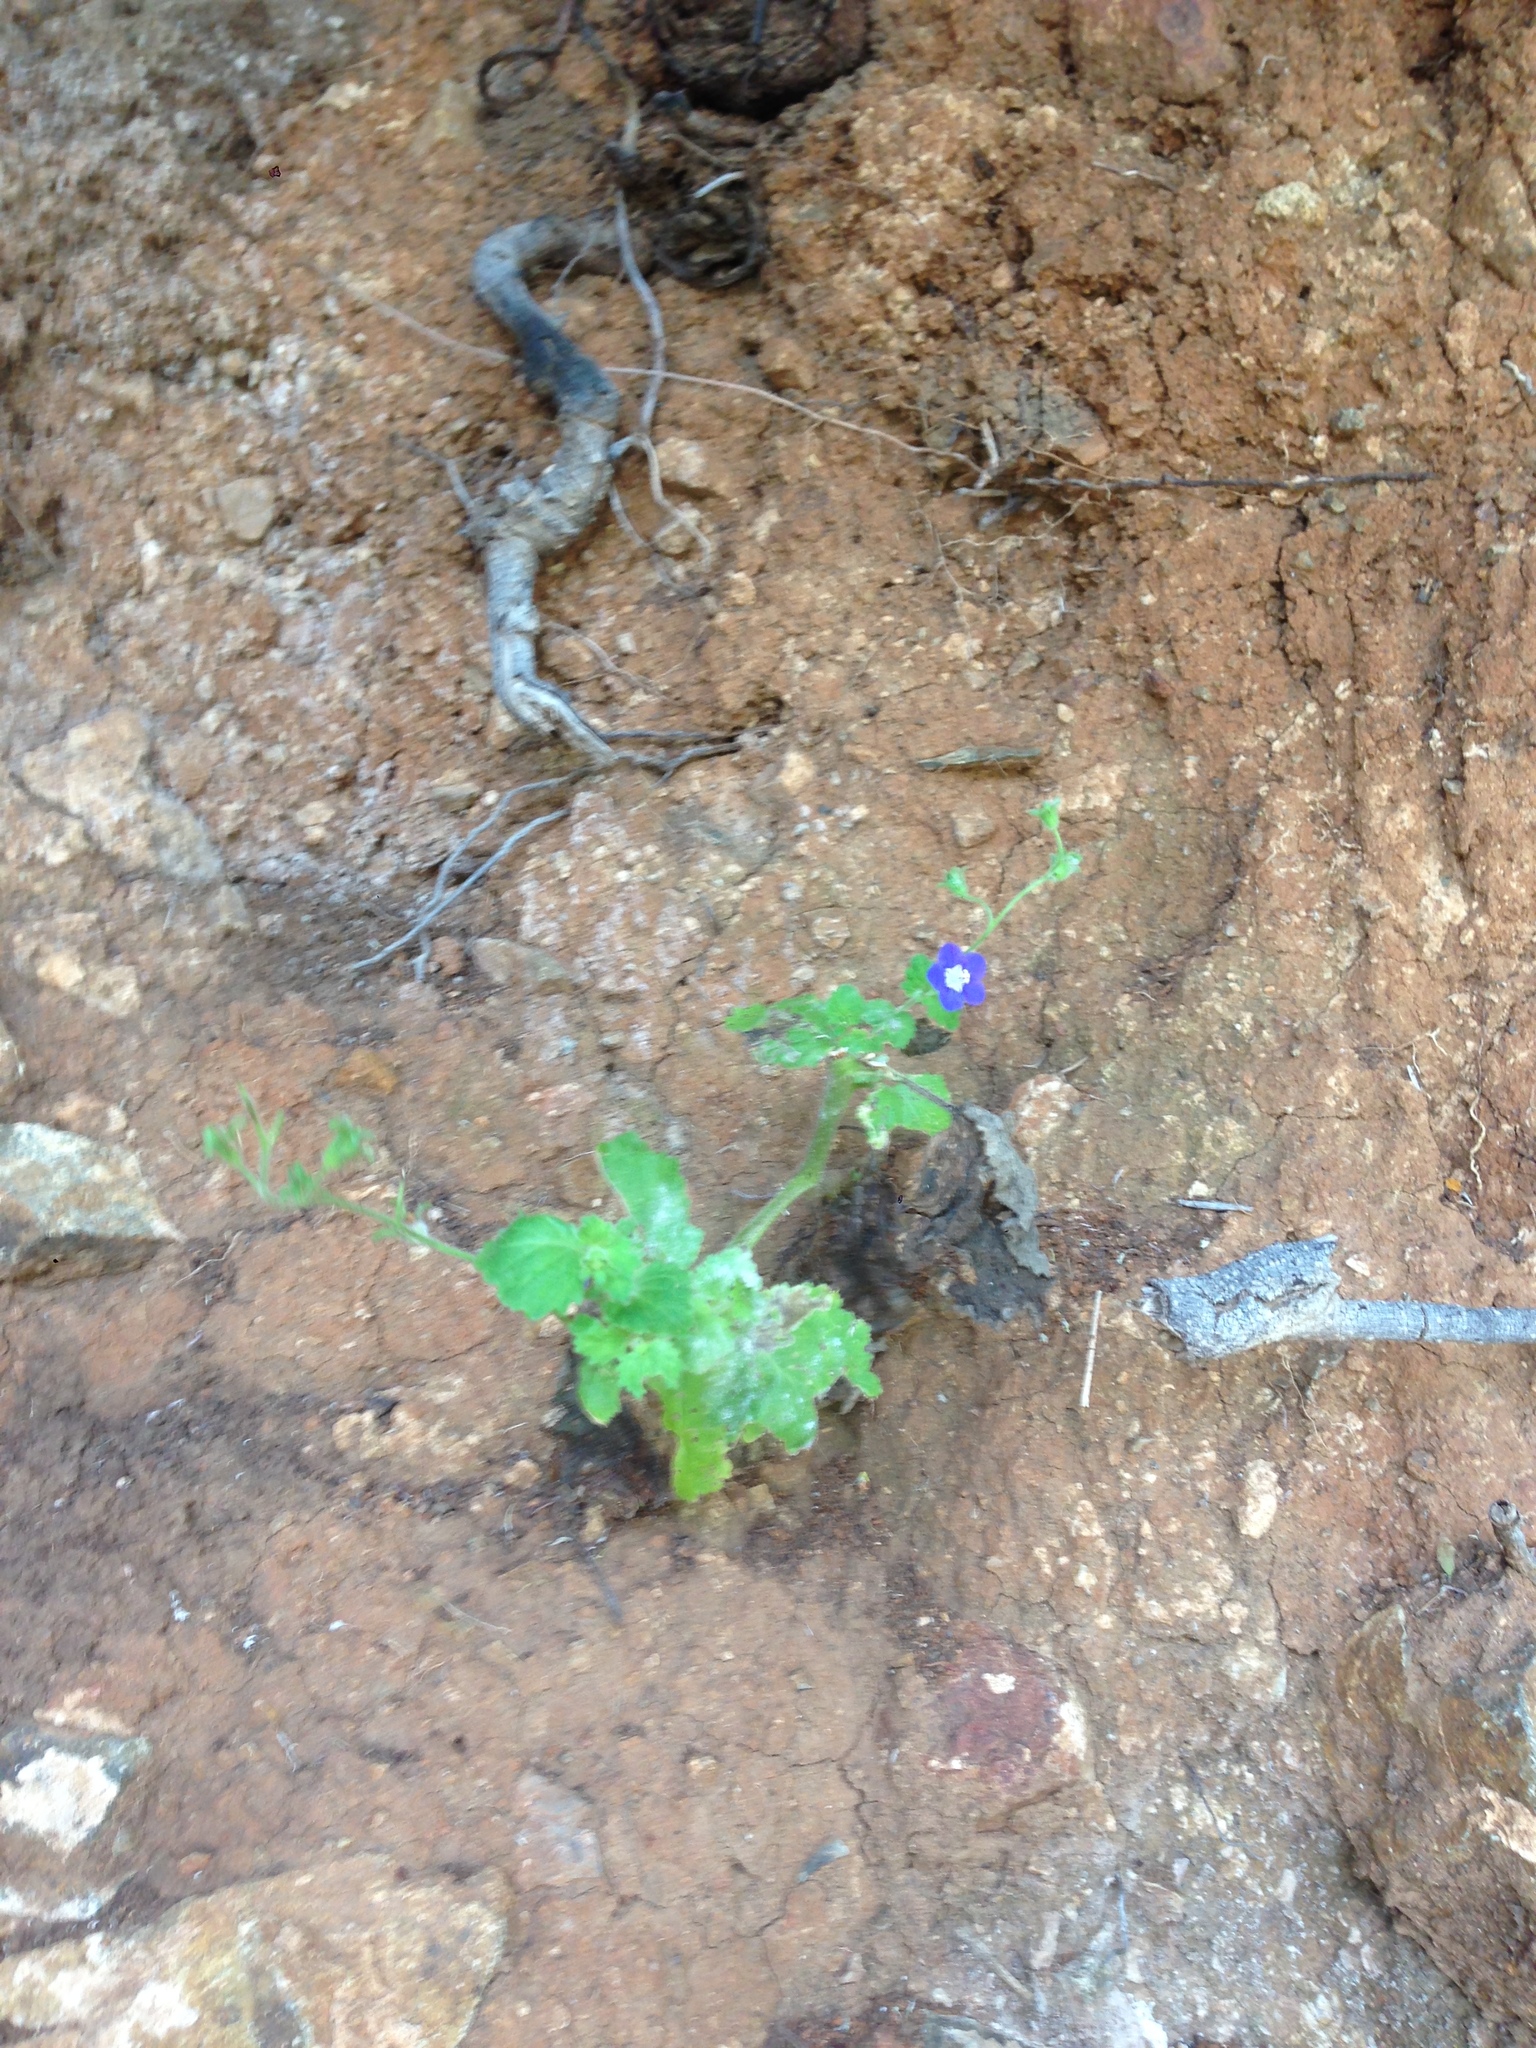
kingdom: Plantae
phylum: Tracheophyta
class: Magnoliopsida
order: Boraginales
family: Hydrophyllaceae
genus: Phacelia
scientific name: Phacelia viscida
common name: Sticky phacelia
